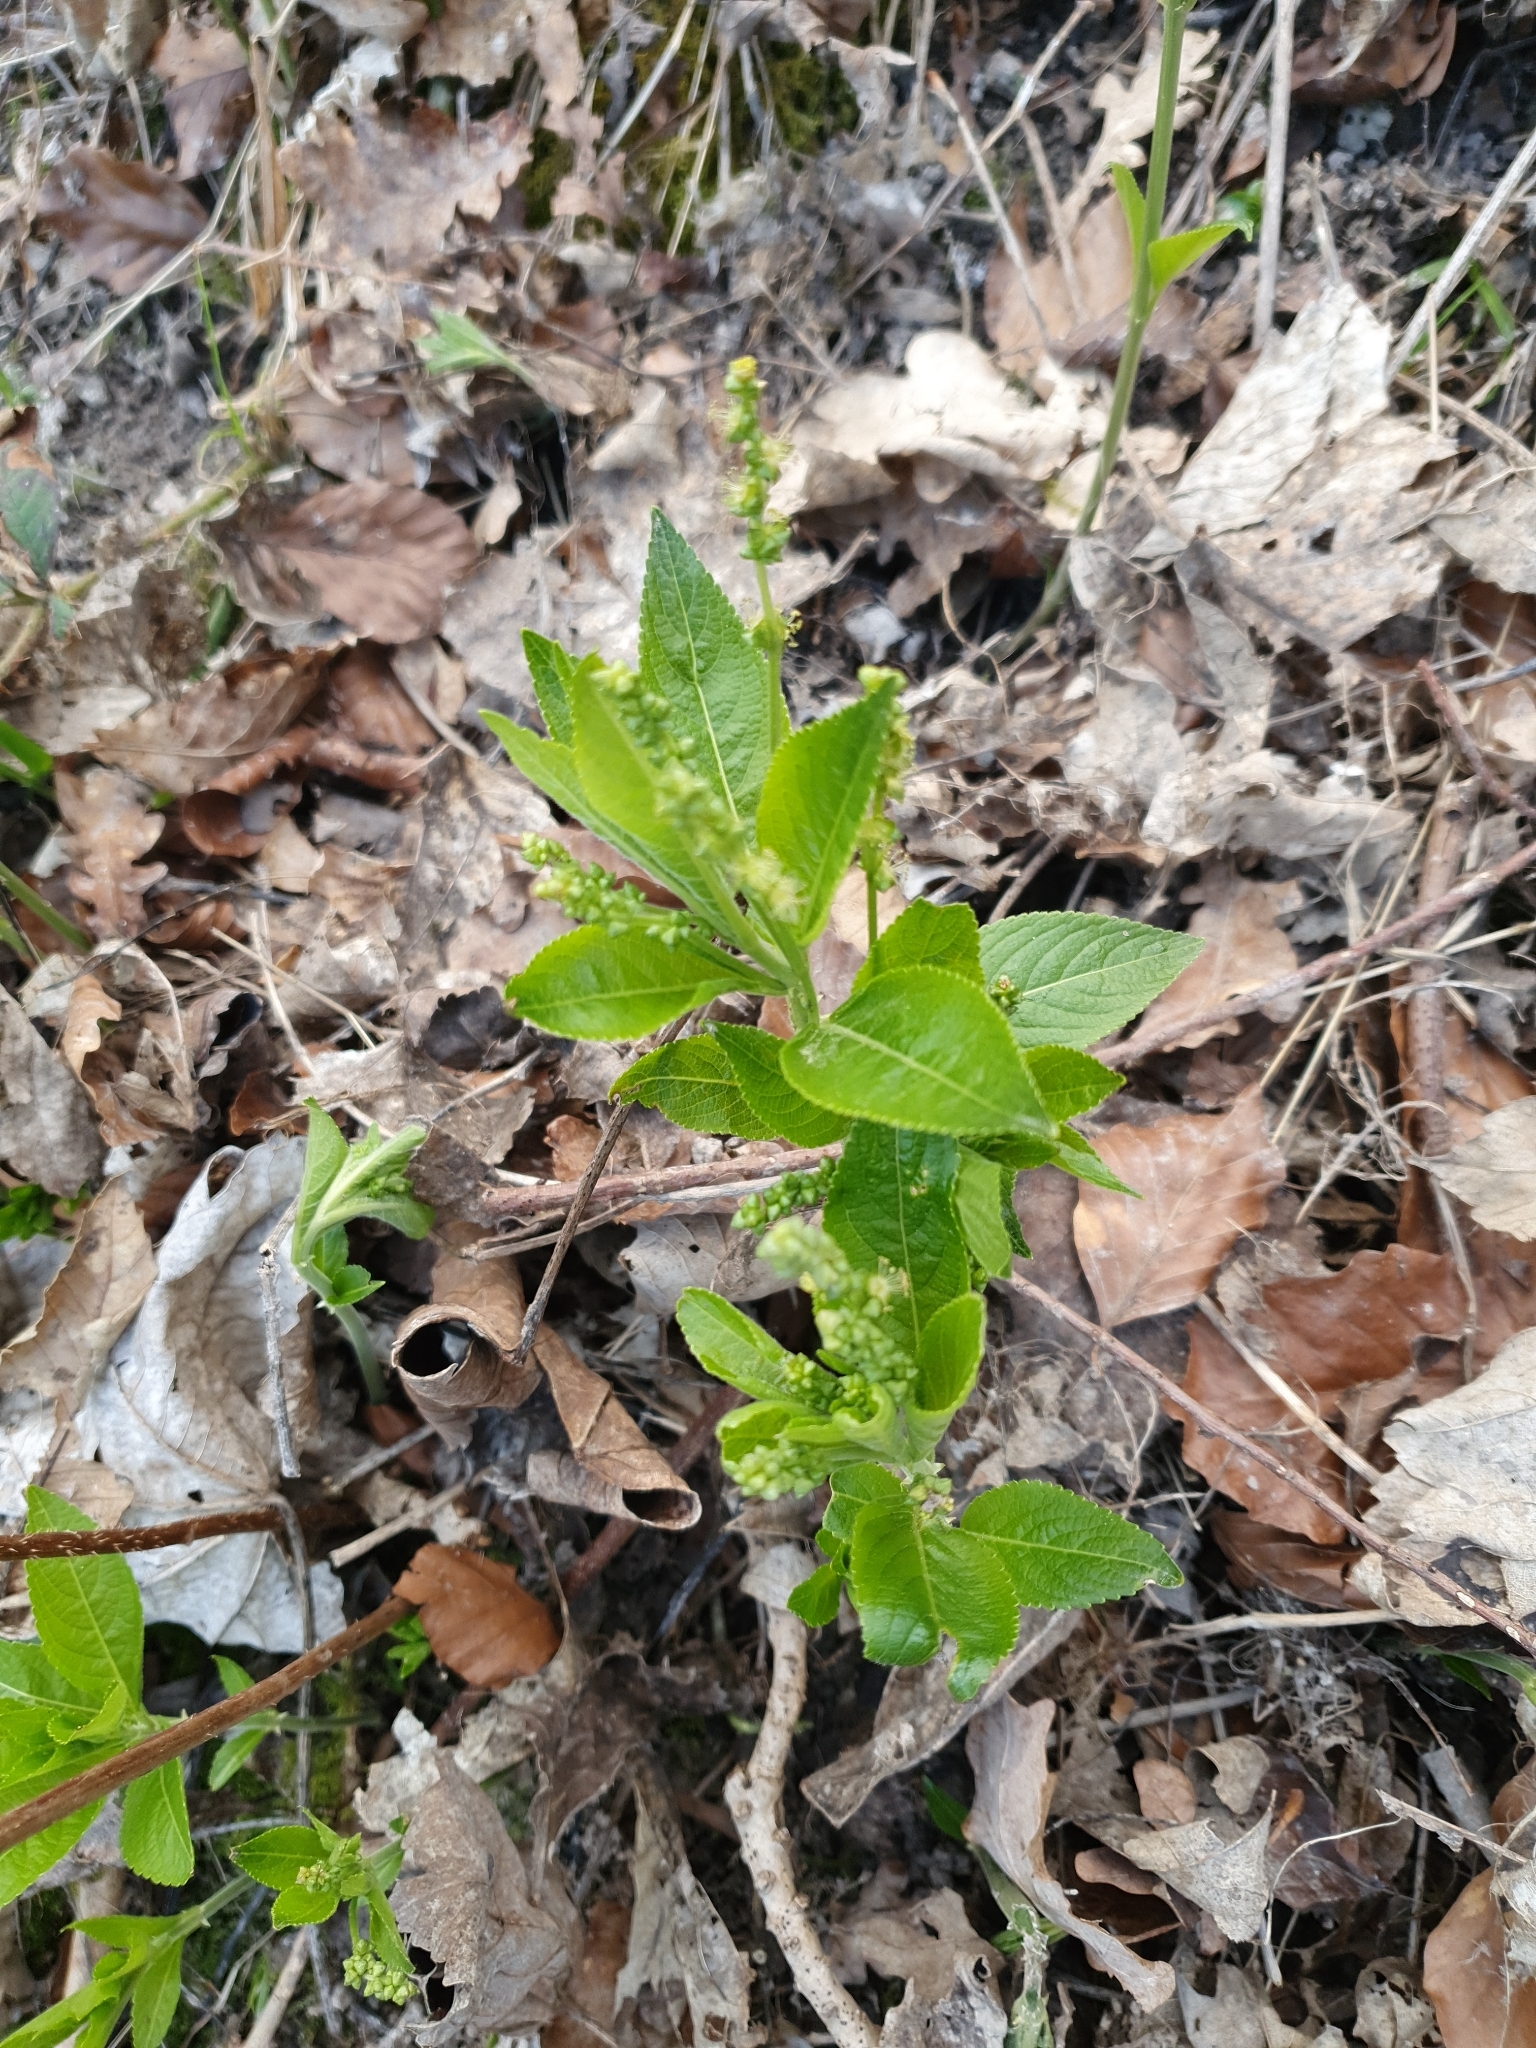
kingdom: Plantae
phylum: Tracheophyta
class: Magnoliopsida
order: Malpighiales
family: Euphorbiaceae
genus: Mercurialis
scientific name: Mercurialis perennis
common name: Dog mercury
